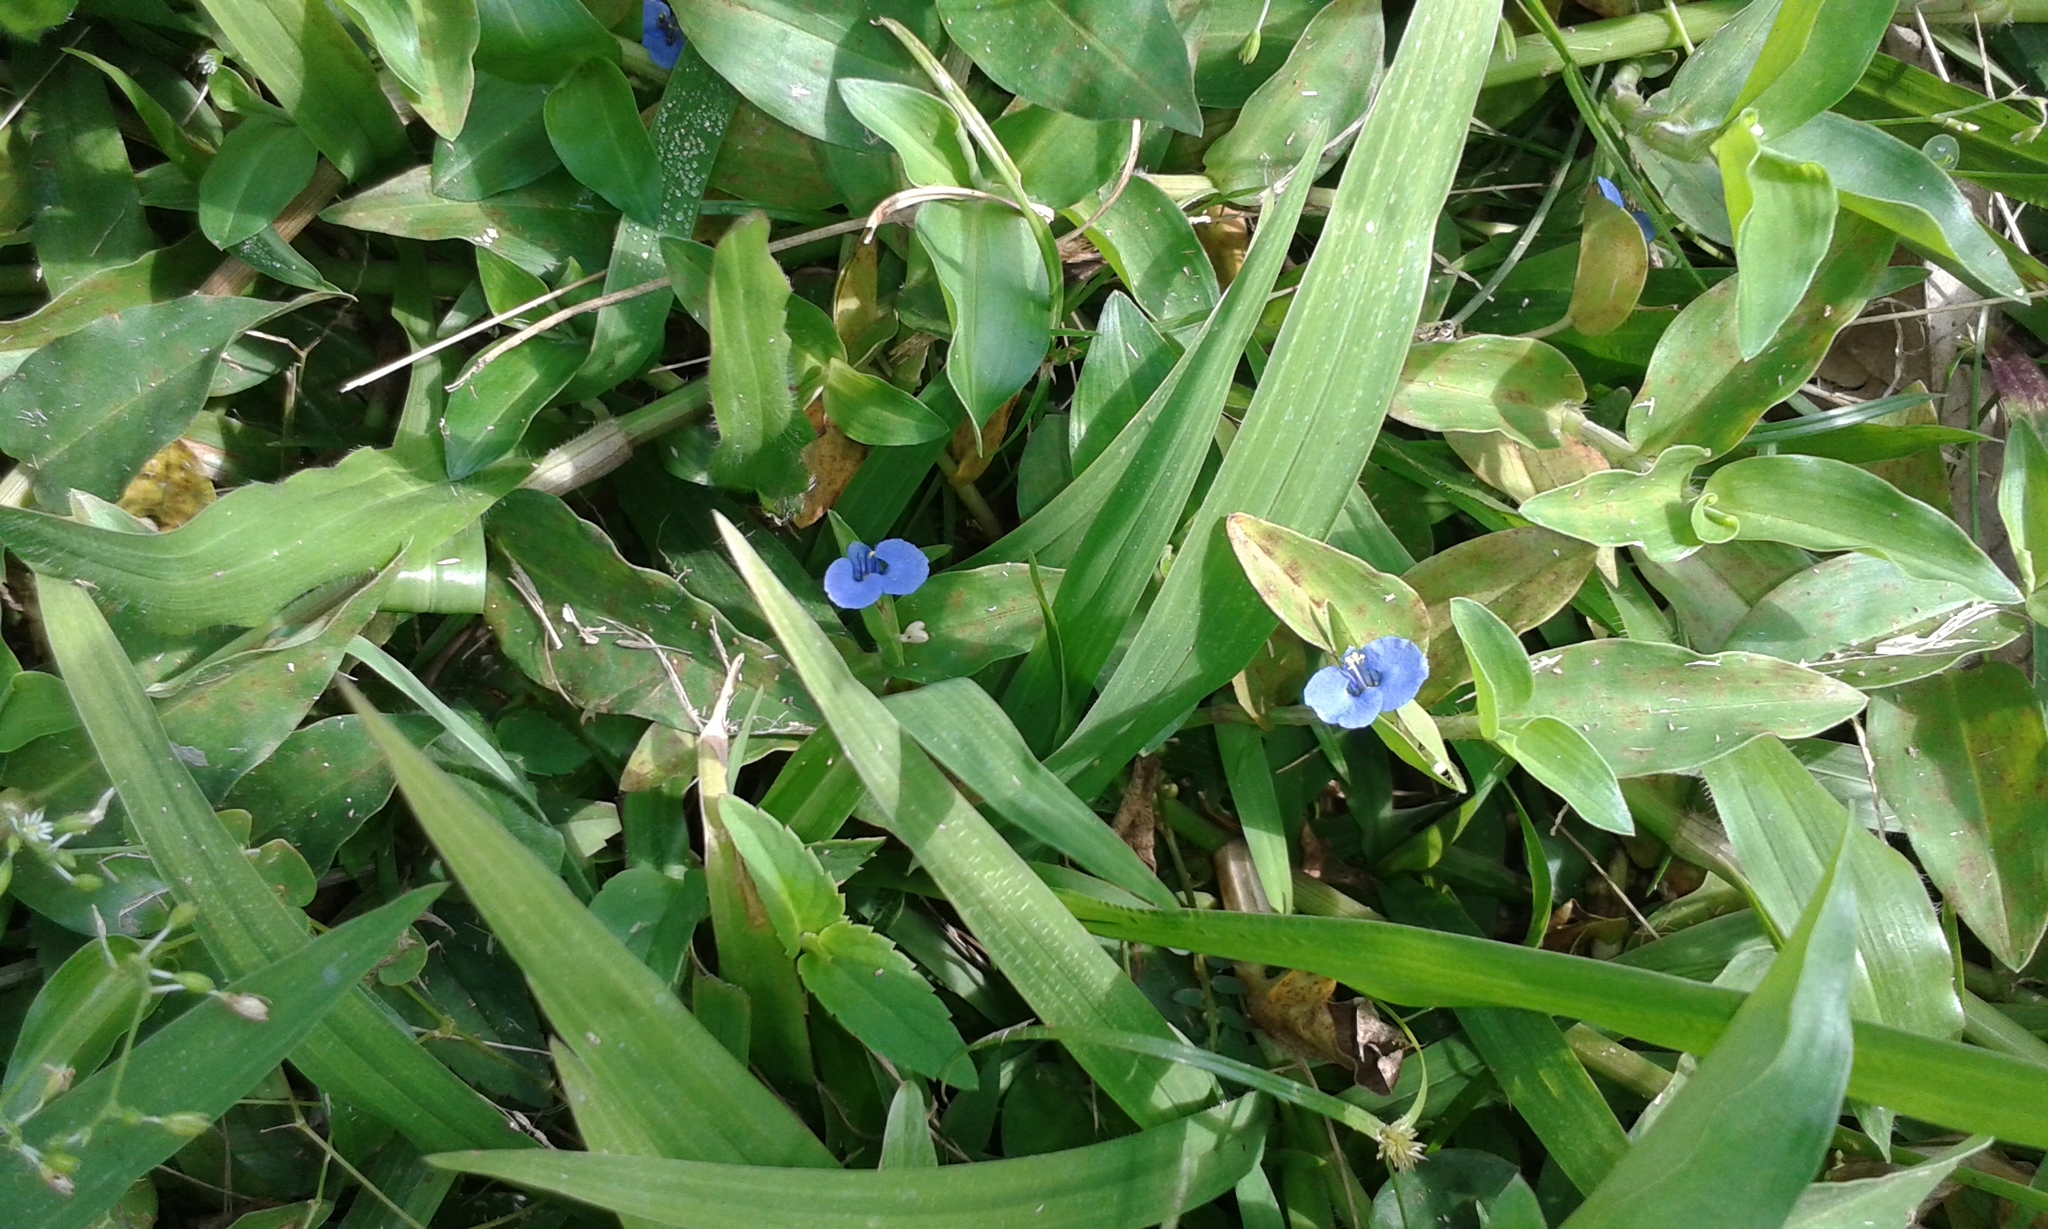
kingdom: Plantae
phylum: Tracheophyta
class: Liliopsida
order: Commelinales
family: Commelinaceae
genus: Commelina
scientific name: Commelina diffusa
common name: Climbing dayflower
